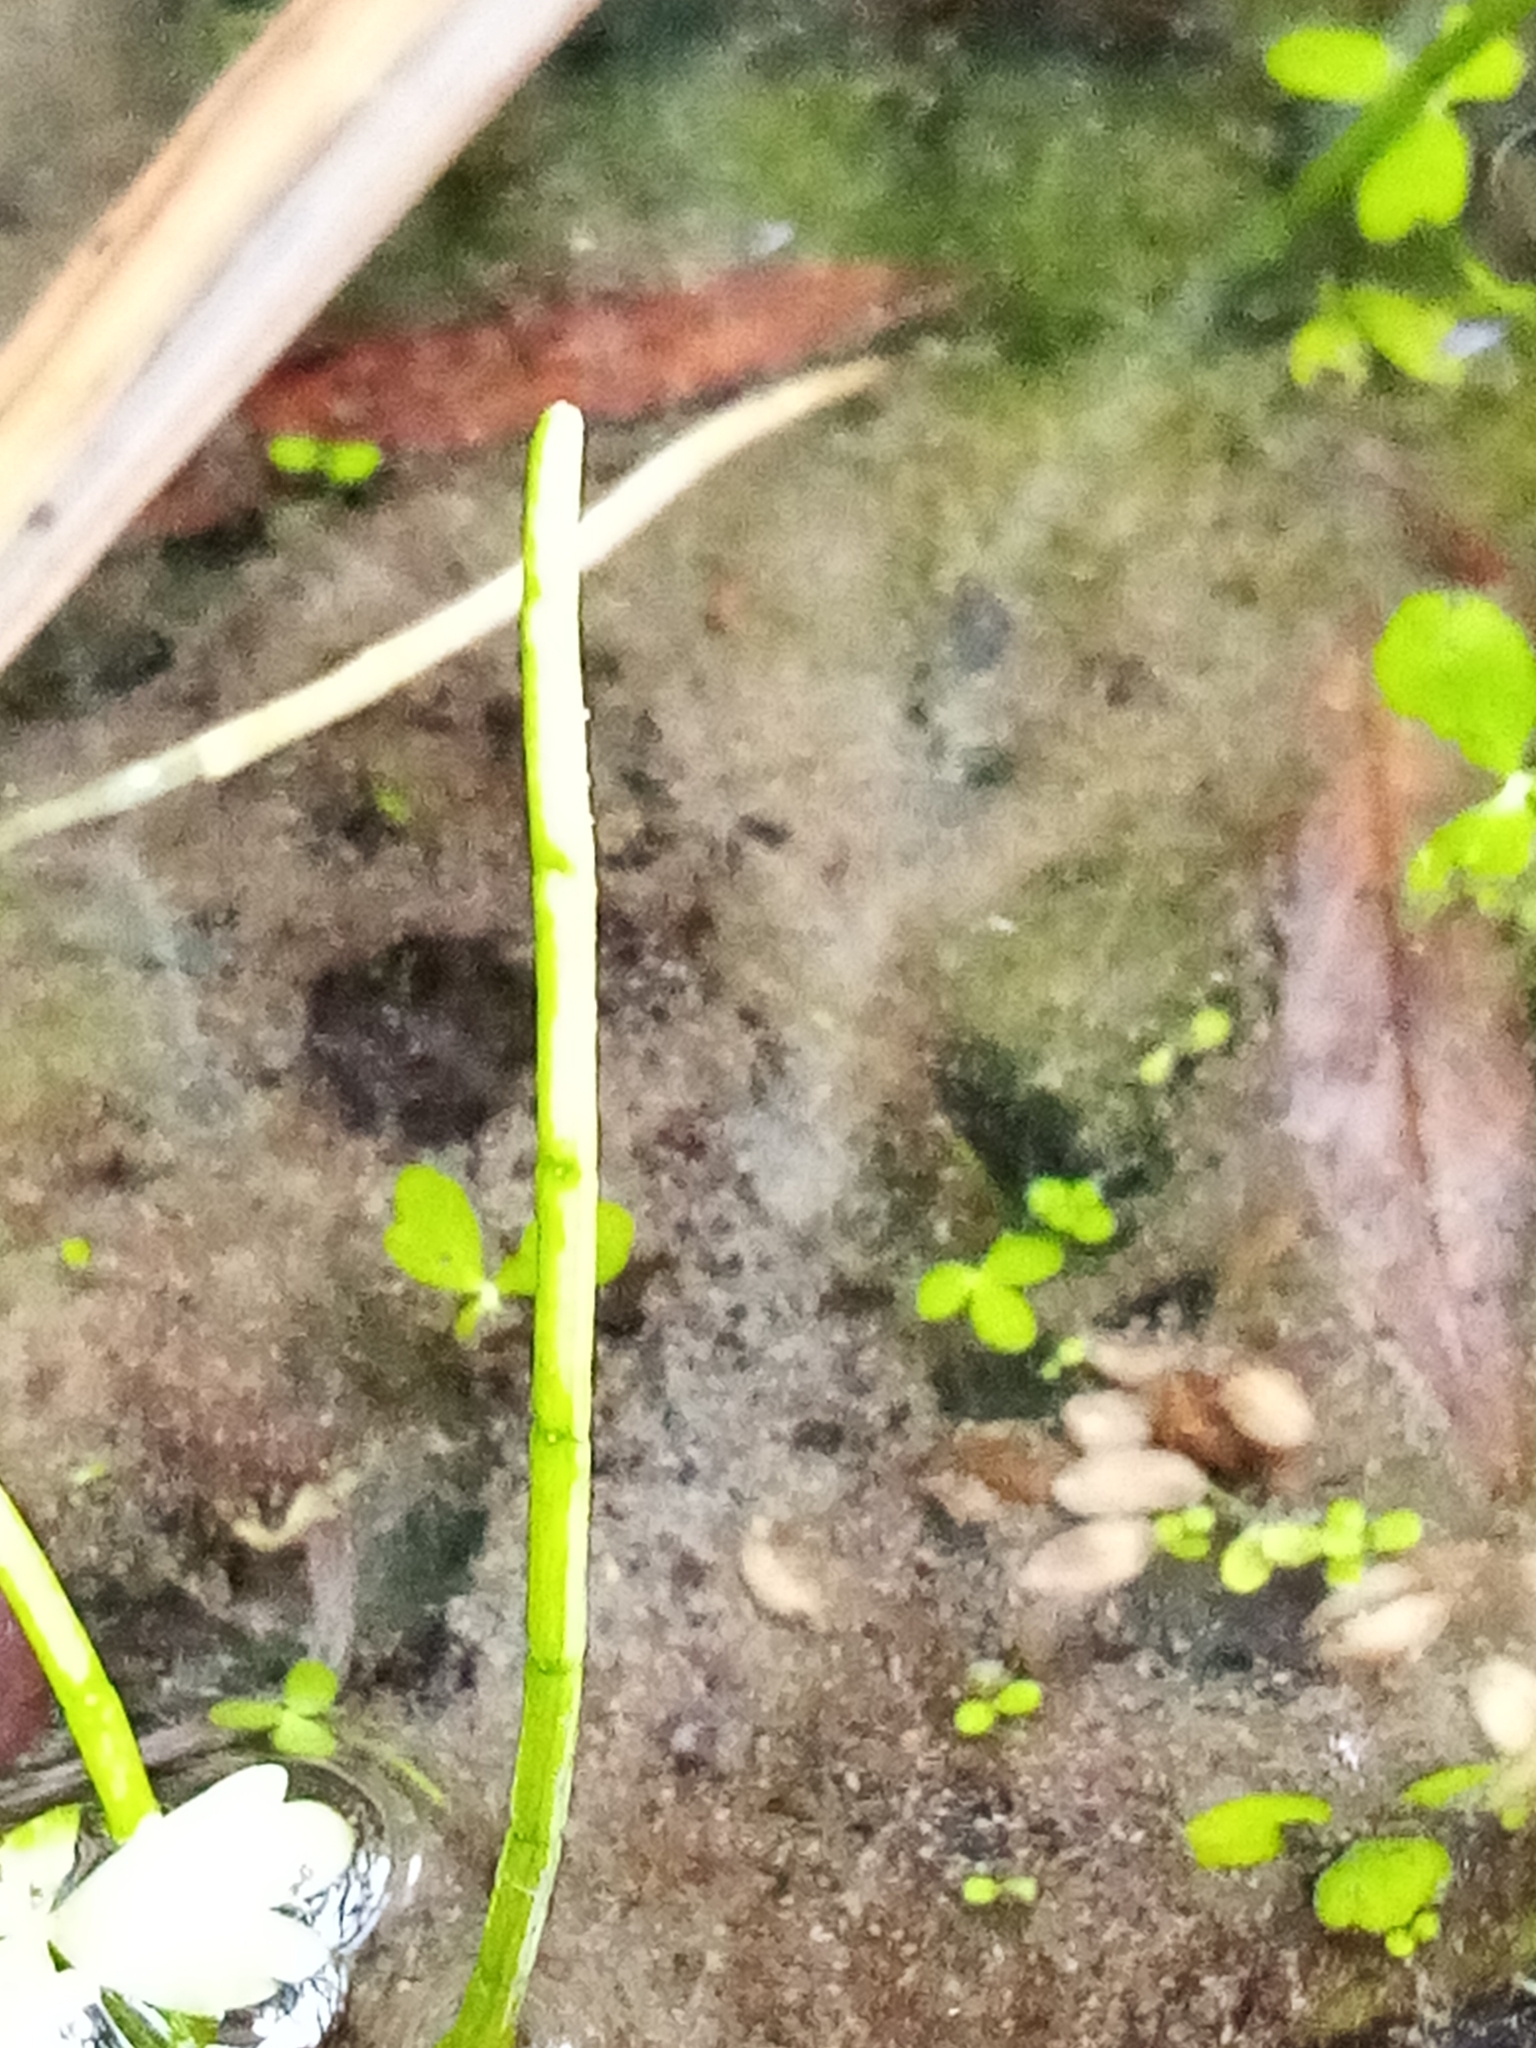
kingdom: Plantae
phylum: Tracheophyta
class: Magnoliopsida
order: Apiales
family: Apiaceae
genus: Lilaeopsis
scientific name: Lilaeopsis novae-zelandiae
